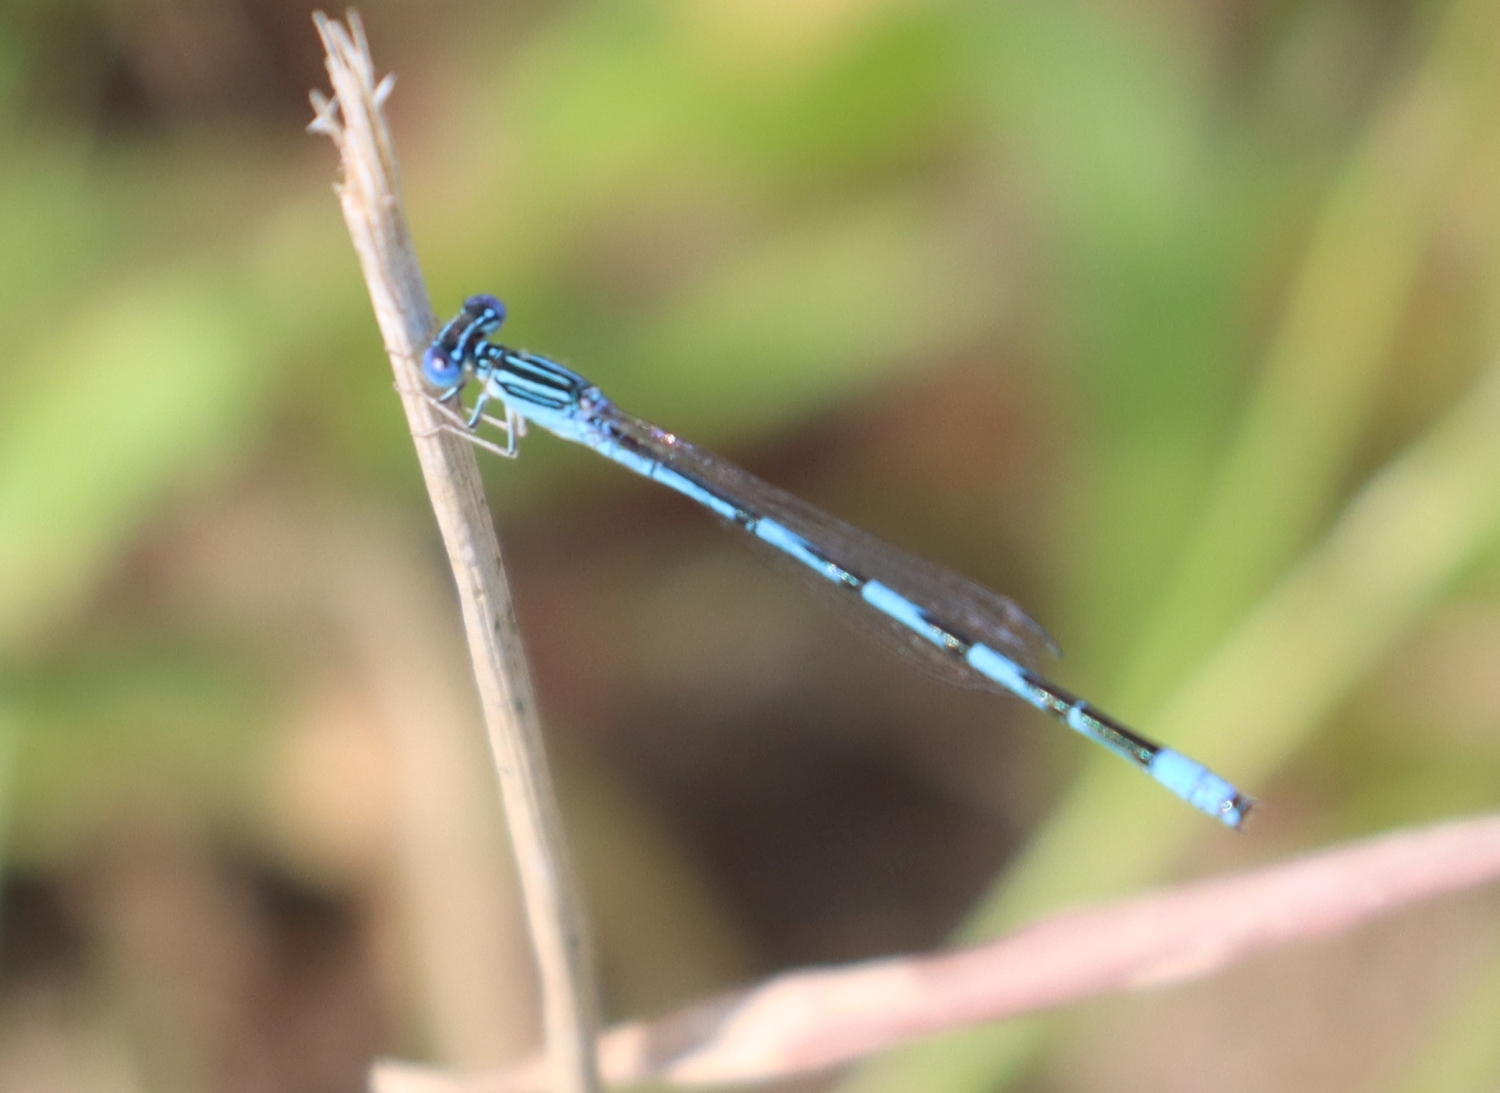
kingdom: Animalia
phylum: Arthropoda
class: Insecta
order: Odonata
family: Coenagrionidae
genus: Enallagma
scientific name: Enallagma basidens
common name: Double-striped bluet
